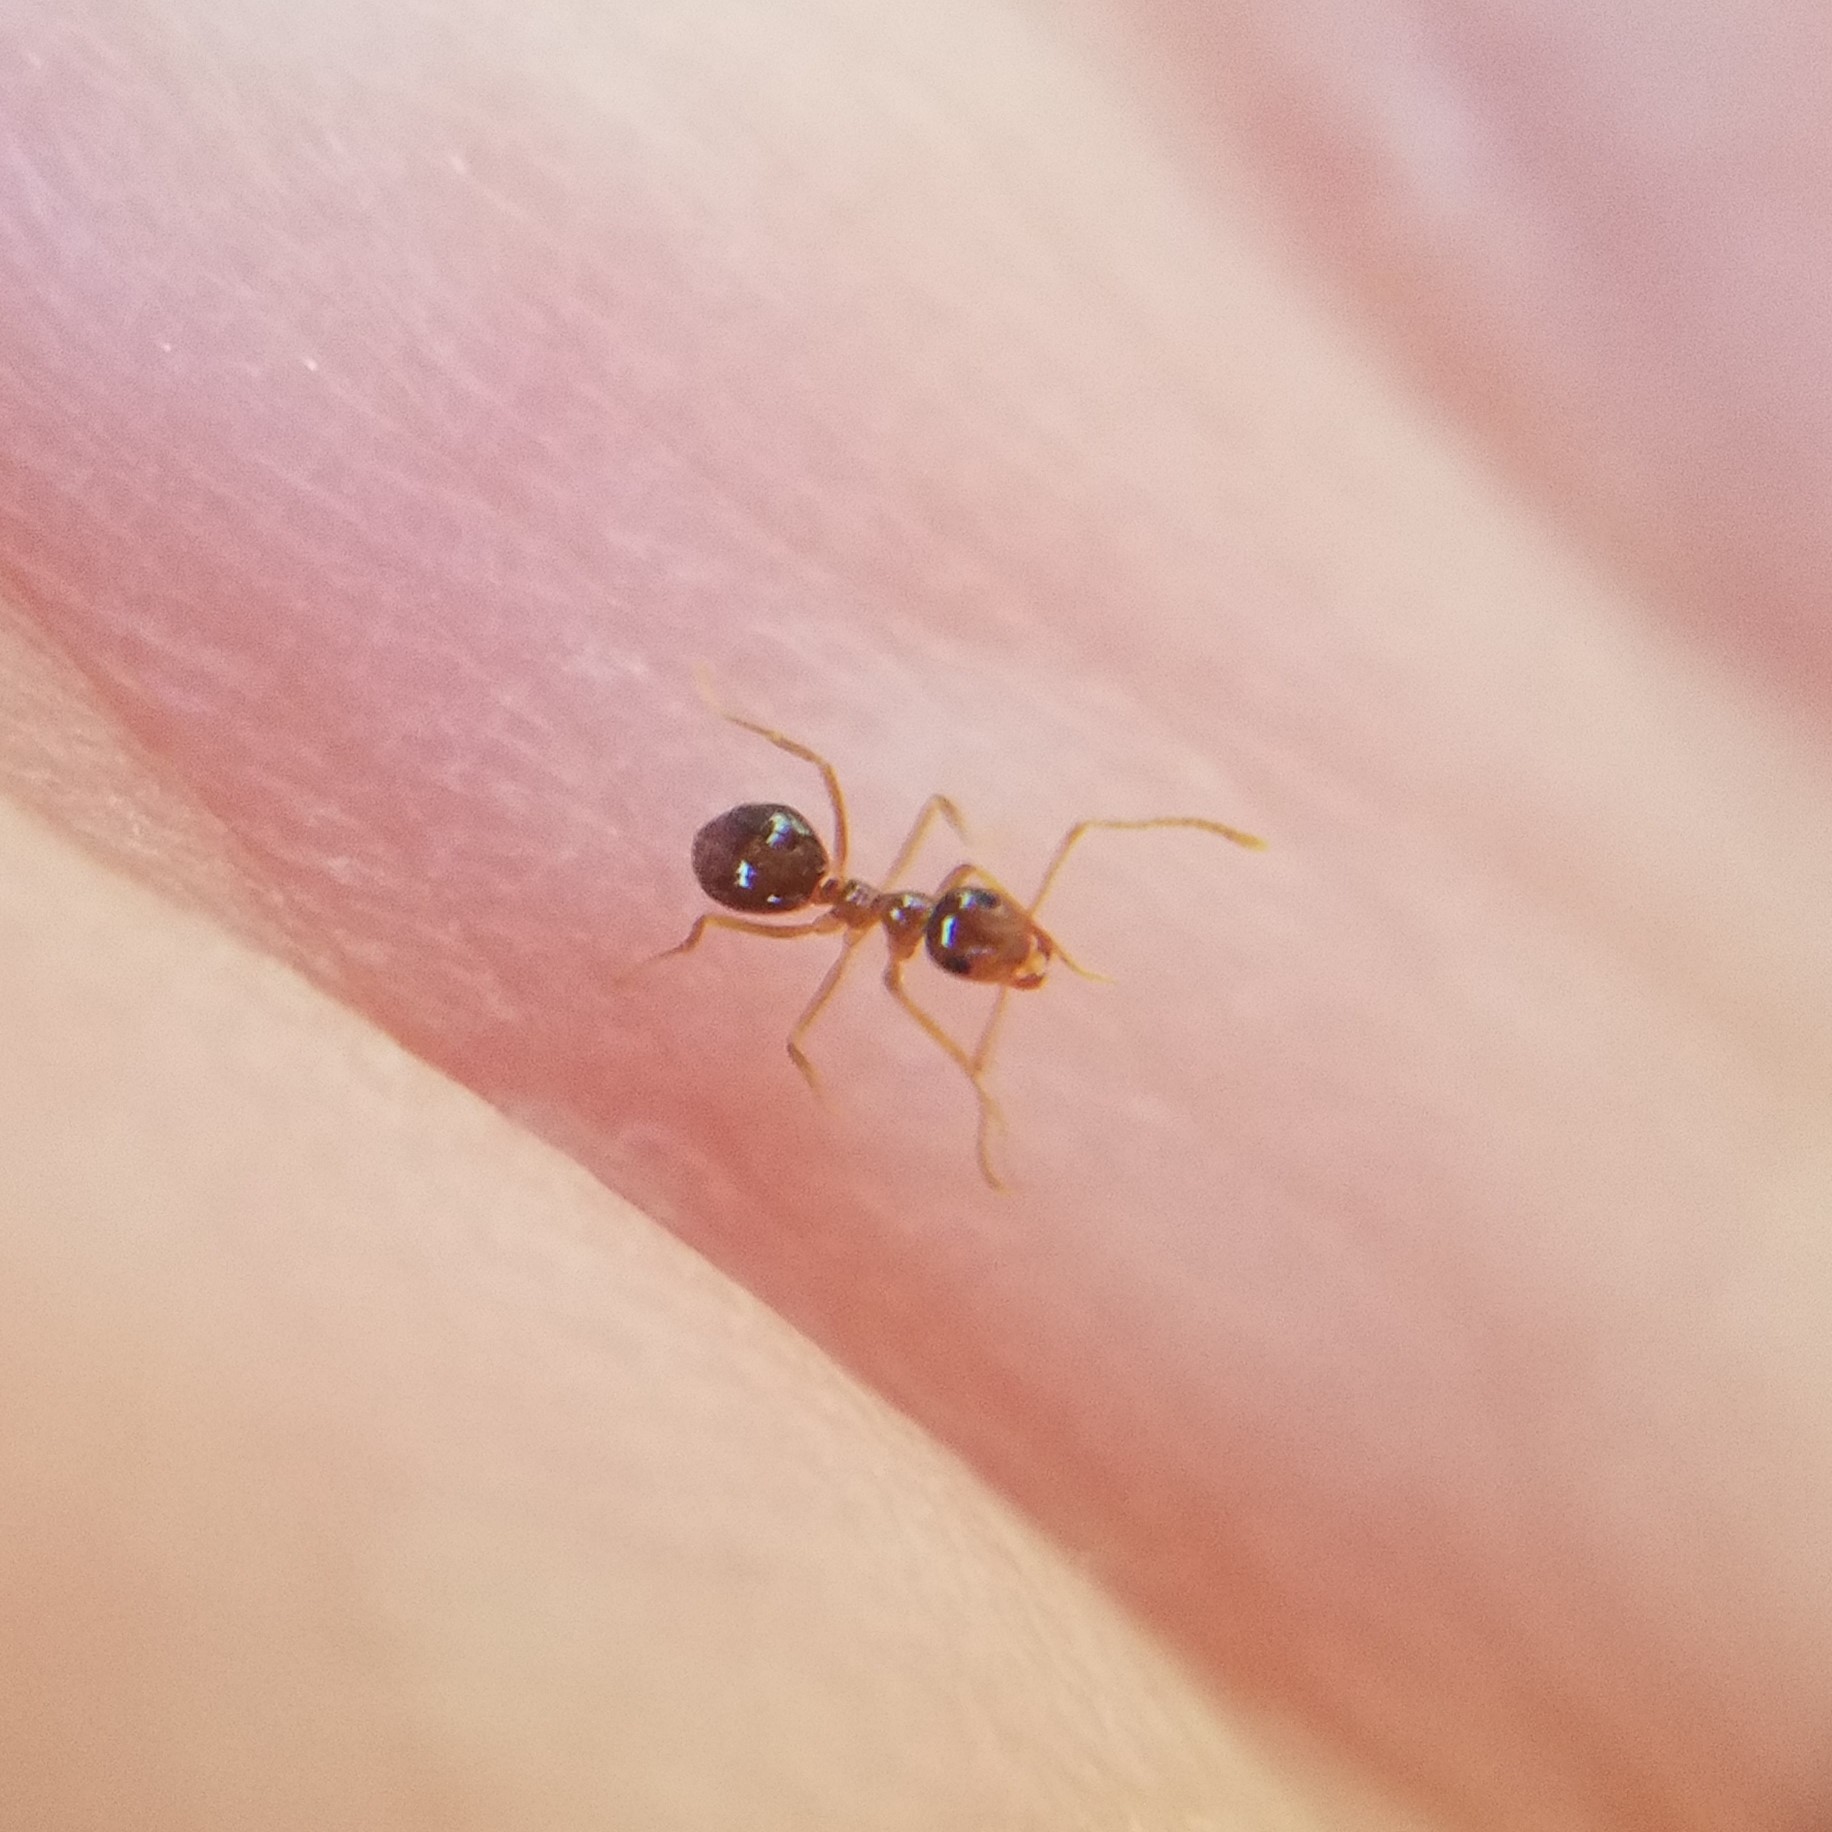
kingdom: Animalia
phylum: Arthropoda
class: Insecta
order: Hymenoptera
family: Formicidae
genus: Prenolepis
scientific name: Prenolepis imparis
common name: Small honey ant
